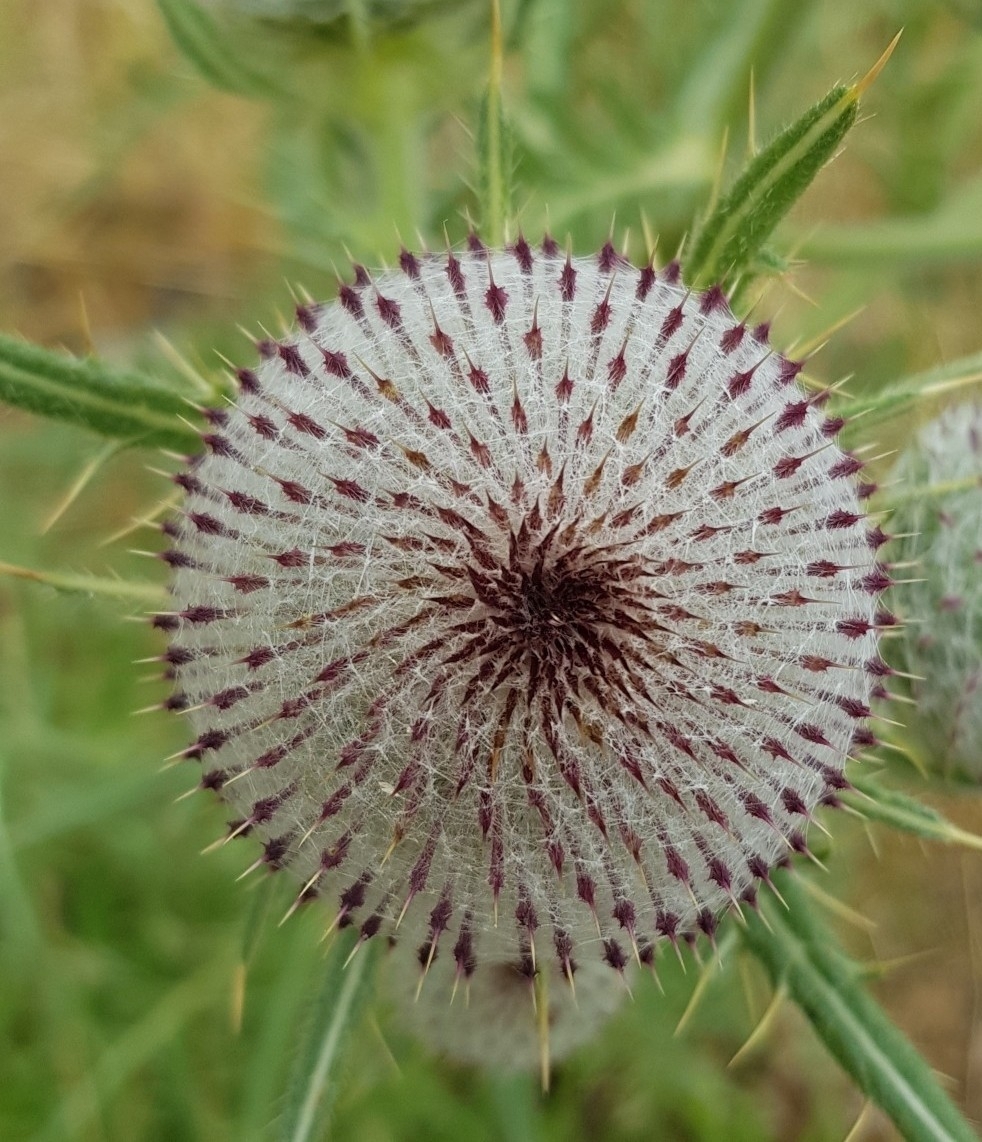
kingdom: Plantae
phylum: Tracheophyta
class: Magnoliopsida
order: Asterales
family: Asteraceae
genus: Lophiolepis
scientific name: Lophiolepis eriophora
